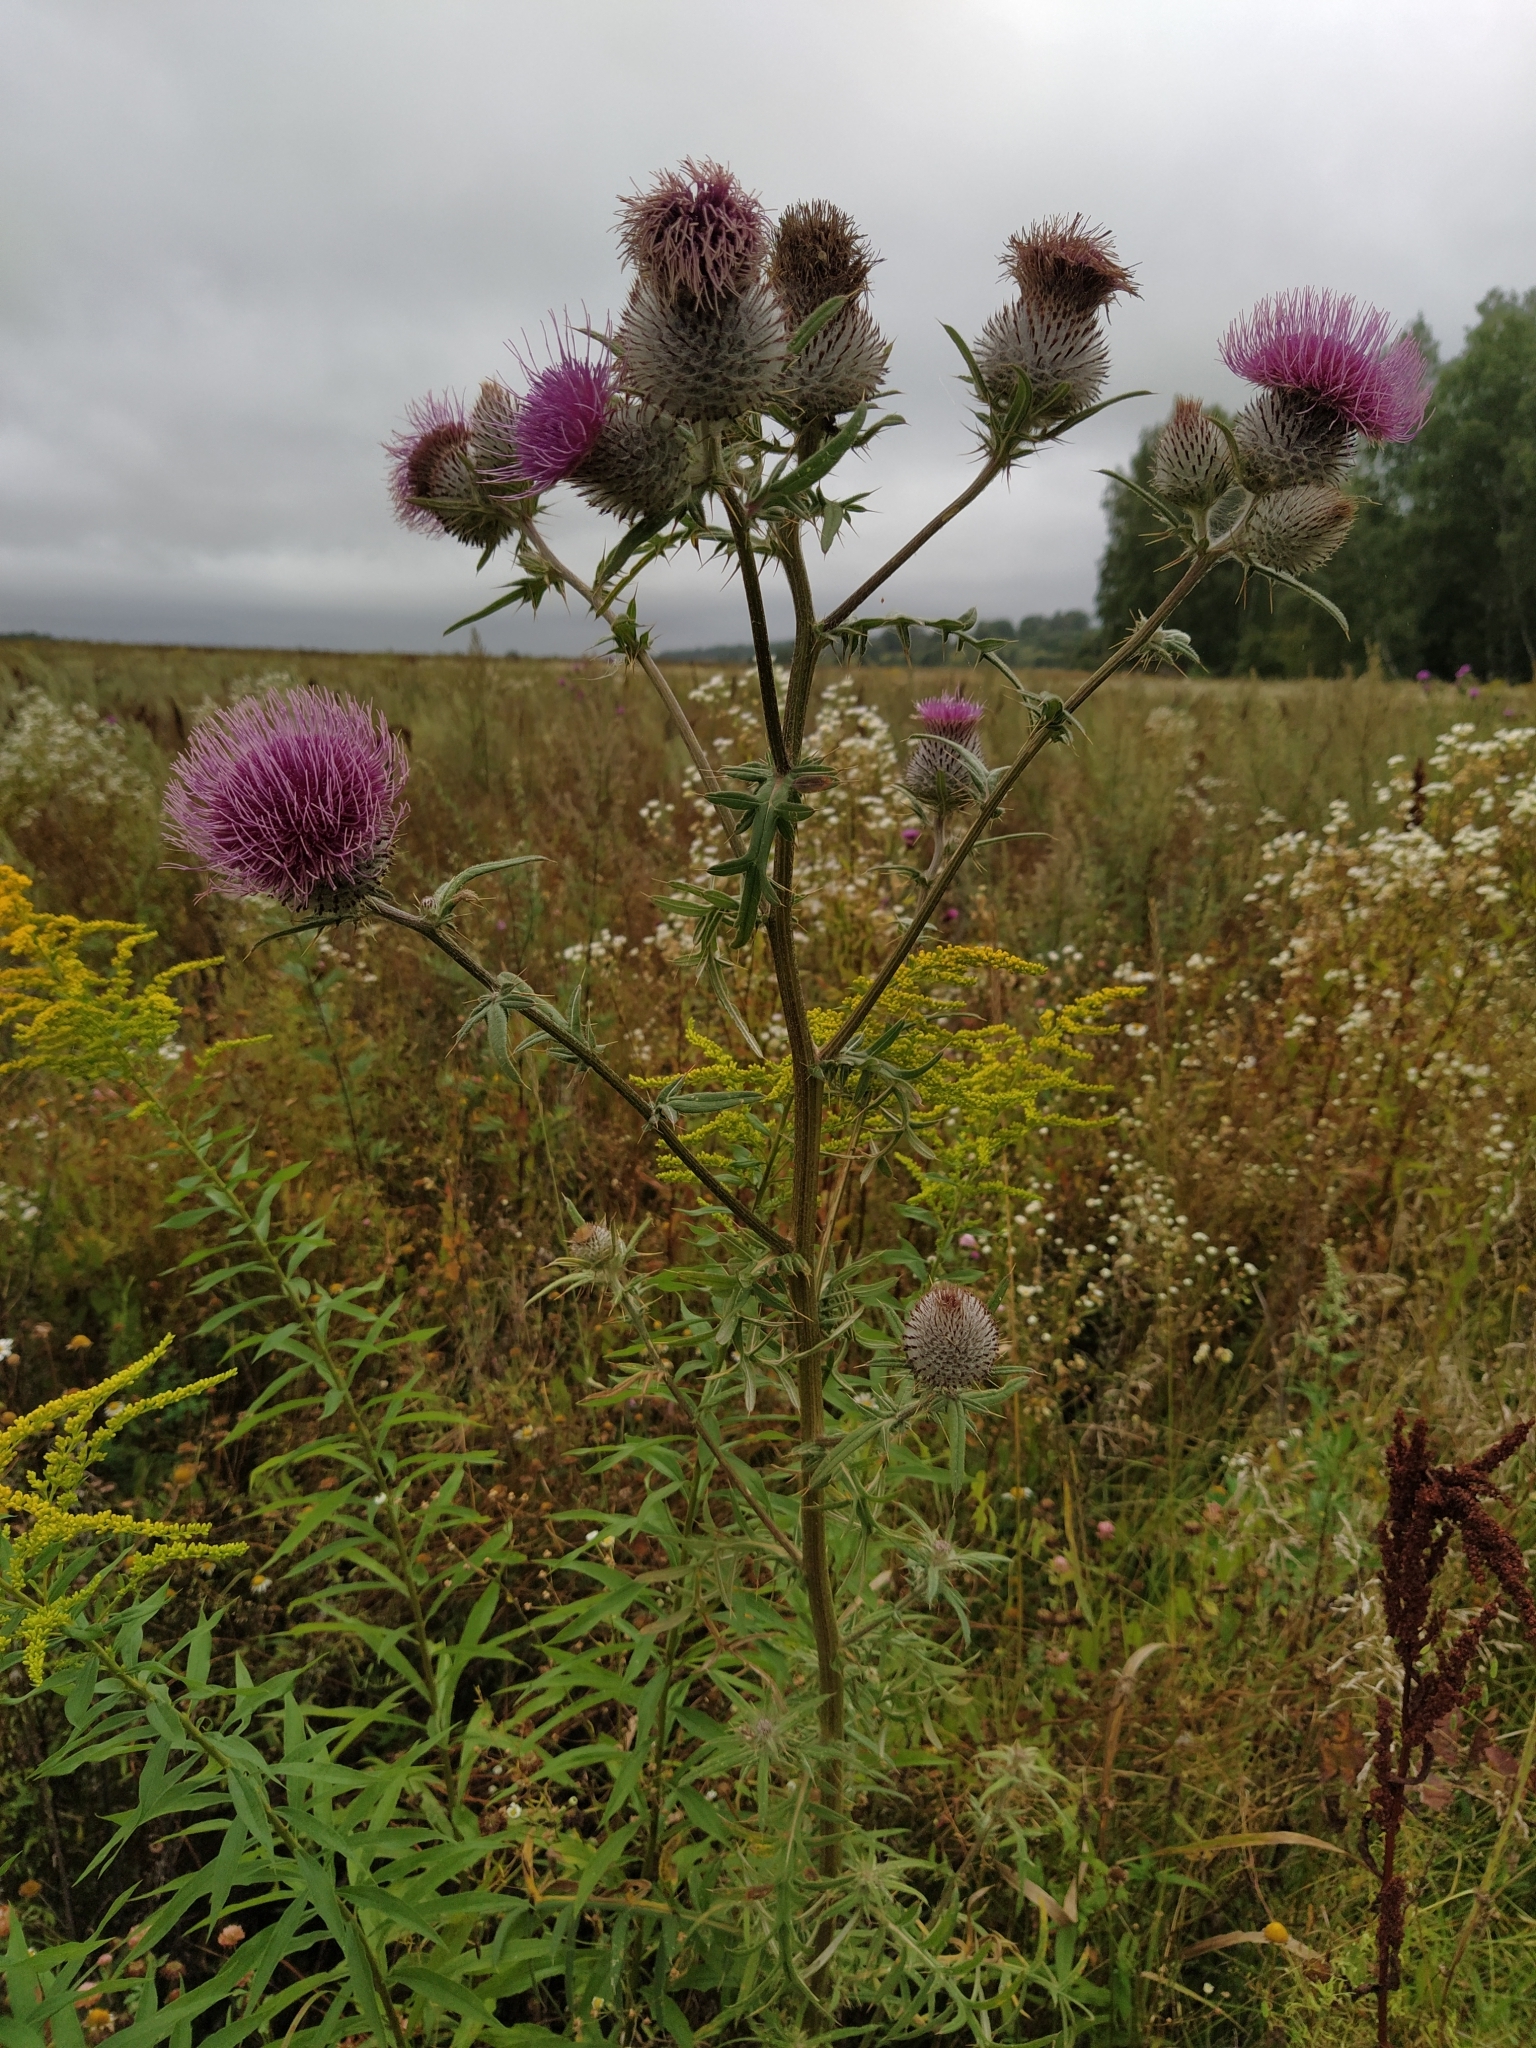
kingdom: Plantae
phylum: Tracheophyta
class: Magnoliopsida
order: Asterales
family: Asteraceae
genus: Lophiolepis
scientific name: Lophiolepis decussata
